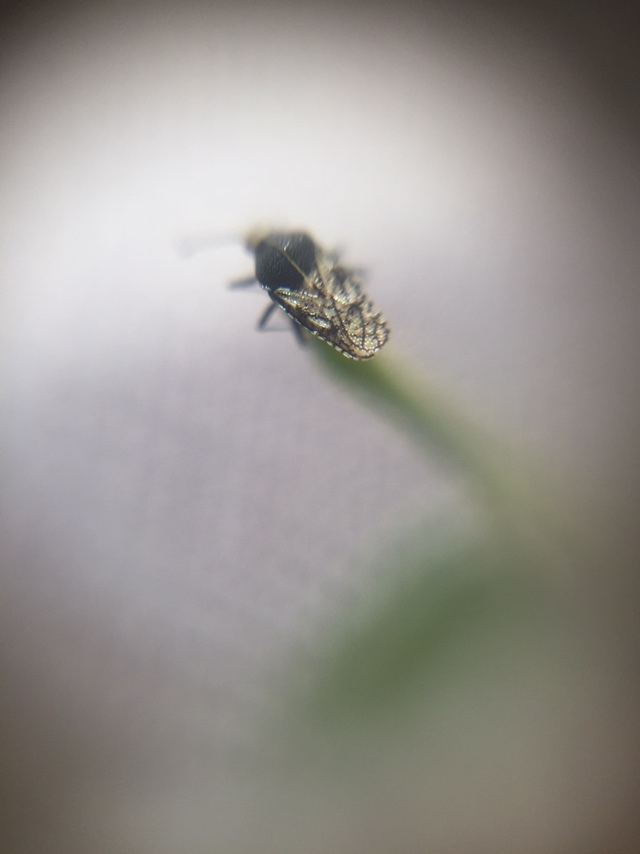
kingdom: Animalia
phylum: Arthropoda
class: Insecta
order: Hemiptera
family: Tingidae
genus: Phaenotropis
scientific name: Phaenotropis cleopatra
